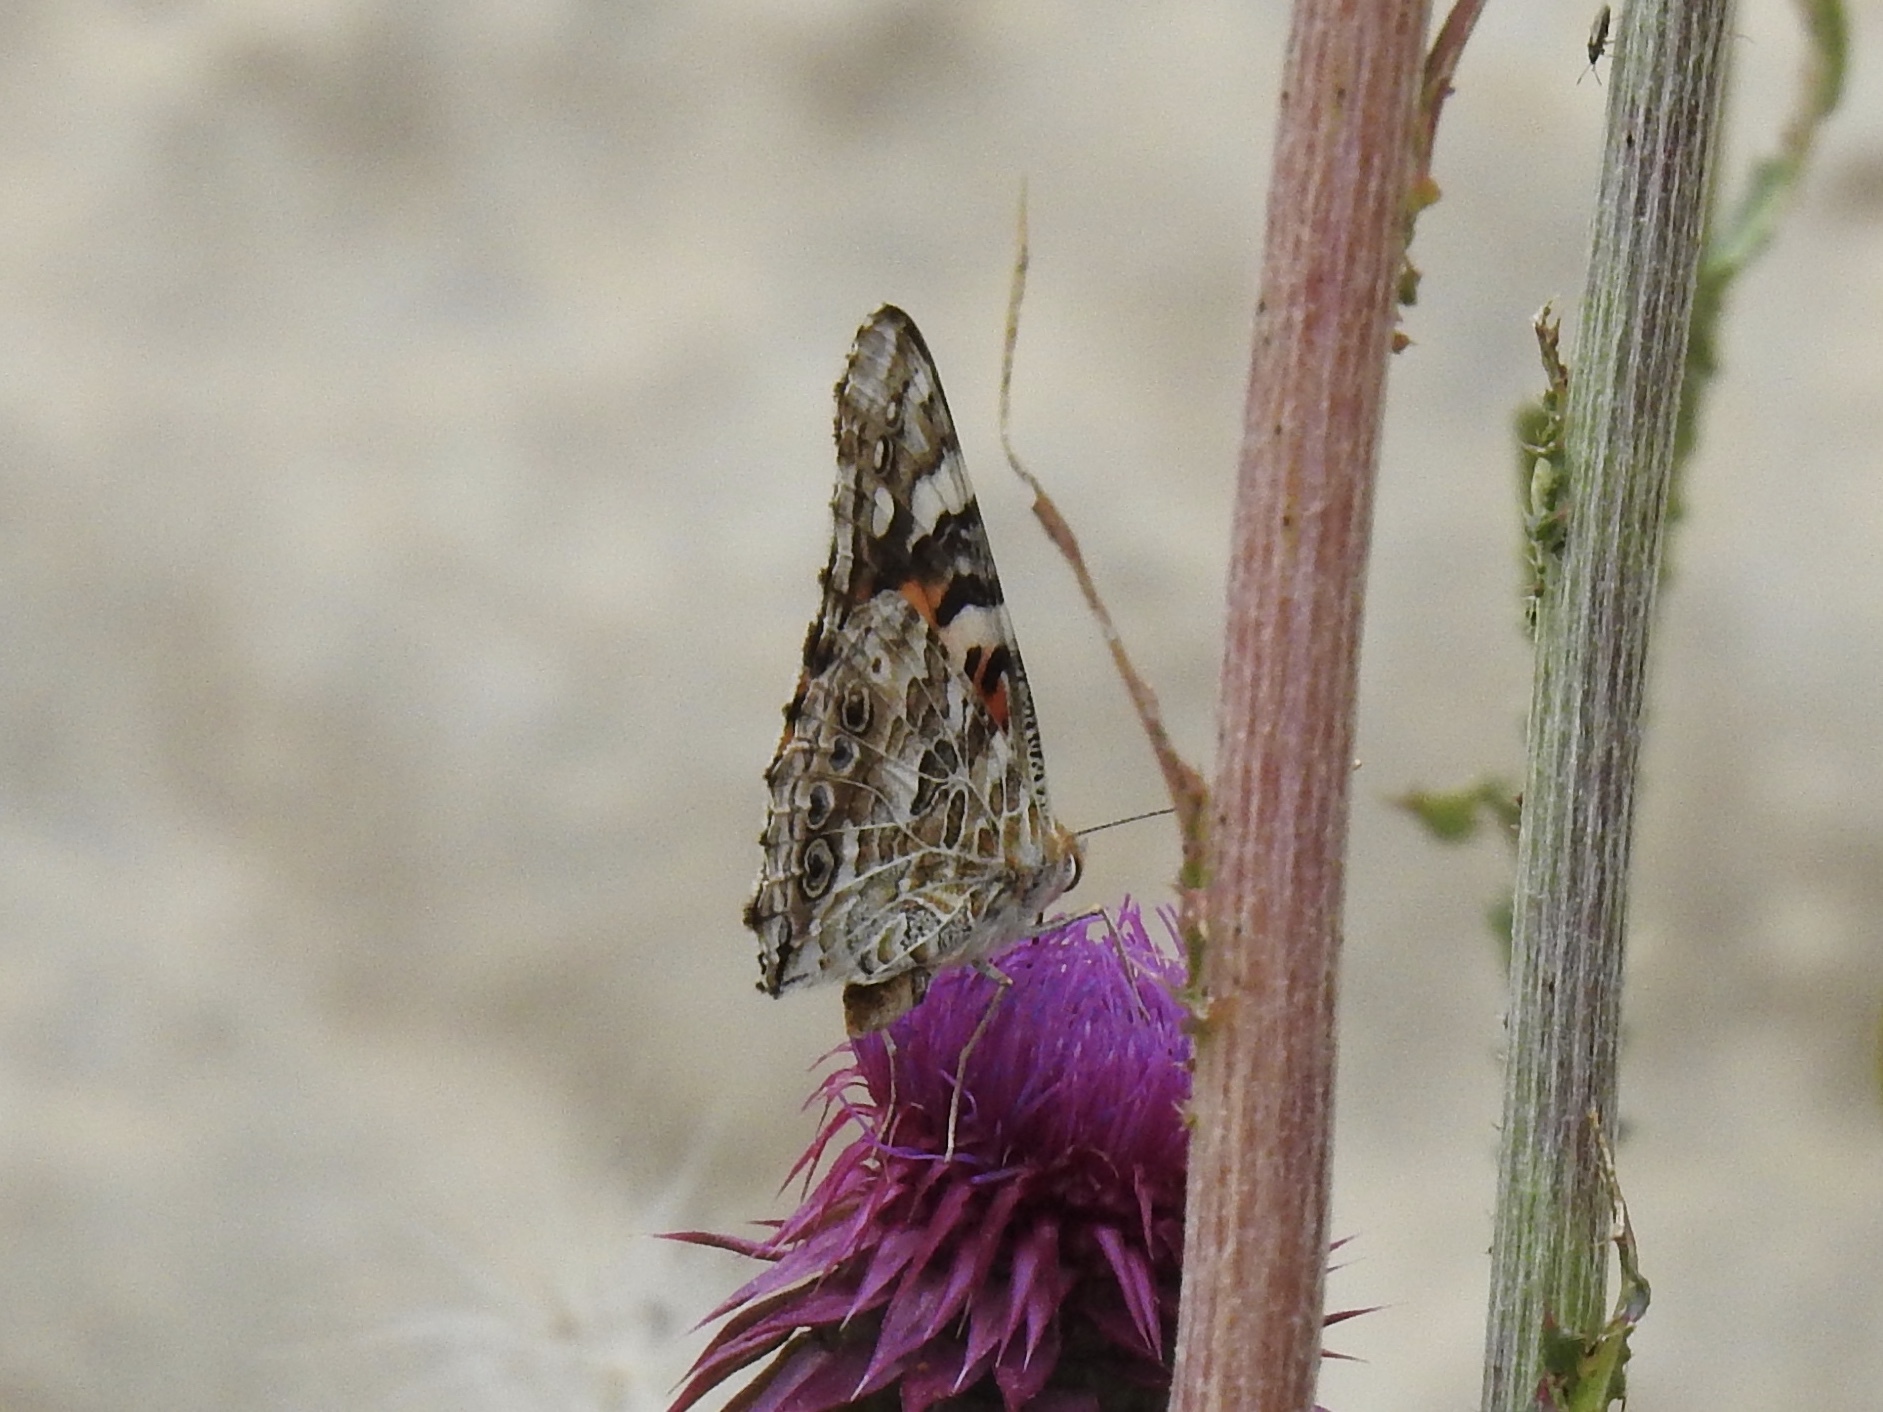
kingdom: Animalia
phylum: Arthropoda
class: Insecta
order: Lepidoptera
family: Nymphalidae
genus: Vanessa
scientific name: Vanessa cardui
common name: Painted lady
